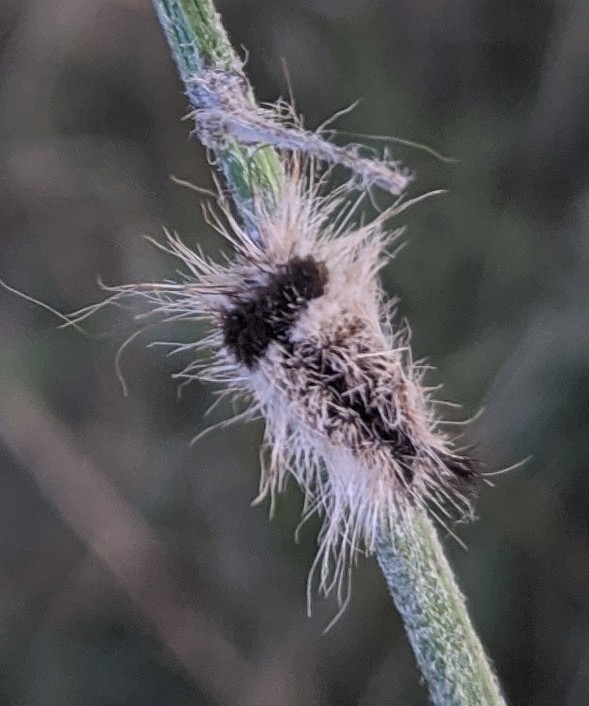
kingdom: Animalia
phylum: Arthropoda
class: Insecta
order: Lepidoptera
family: Noctuidae
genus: Acronicta
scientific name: Acronicta impleta
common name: Powdered dagger
